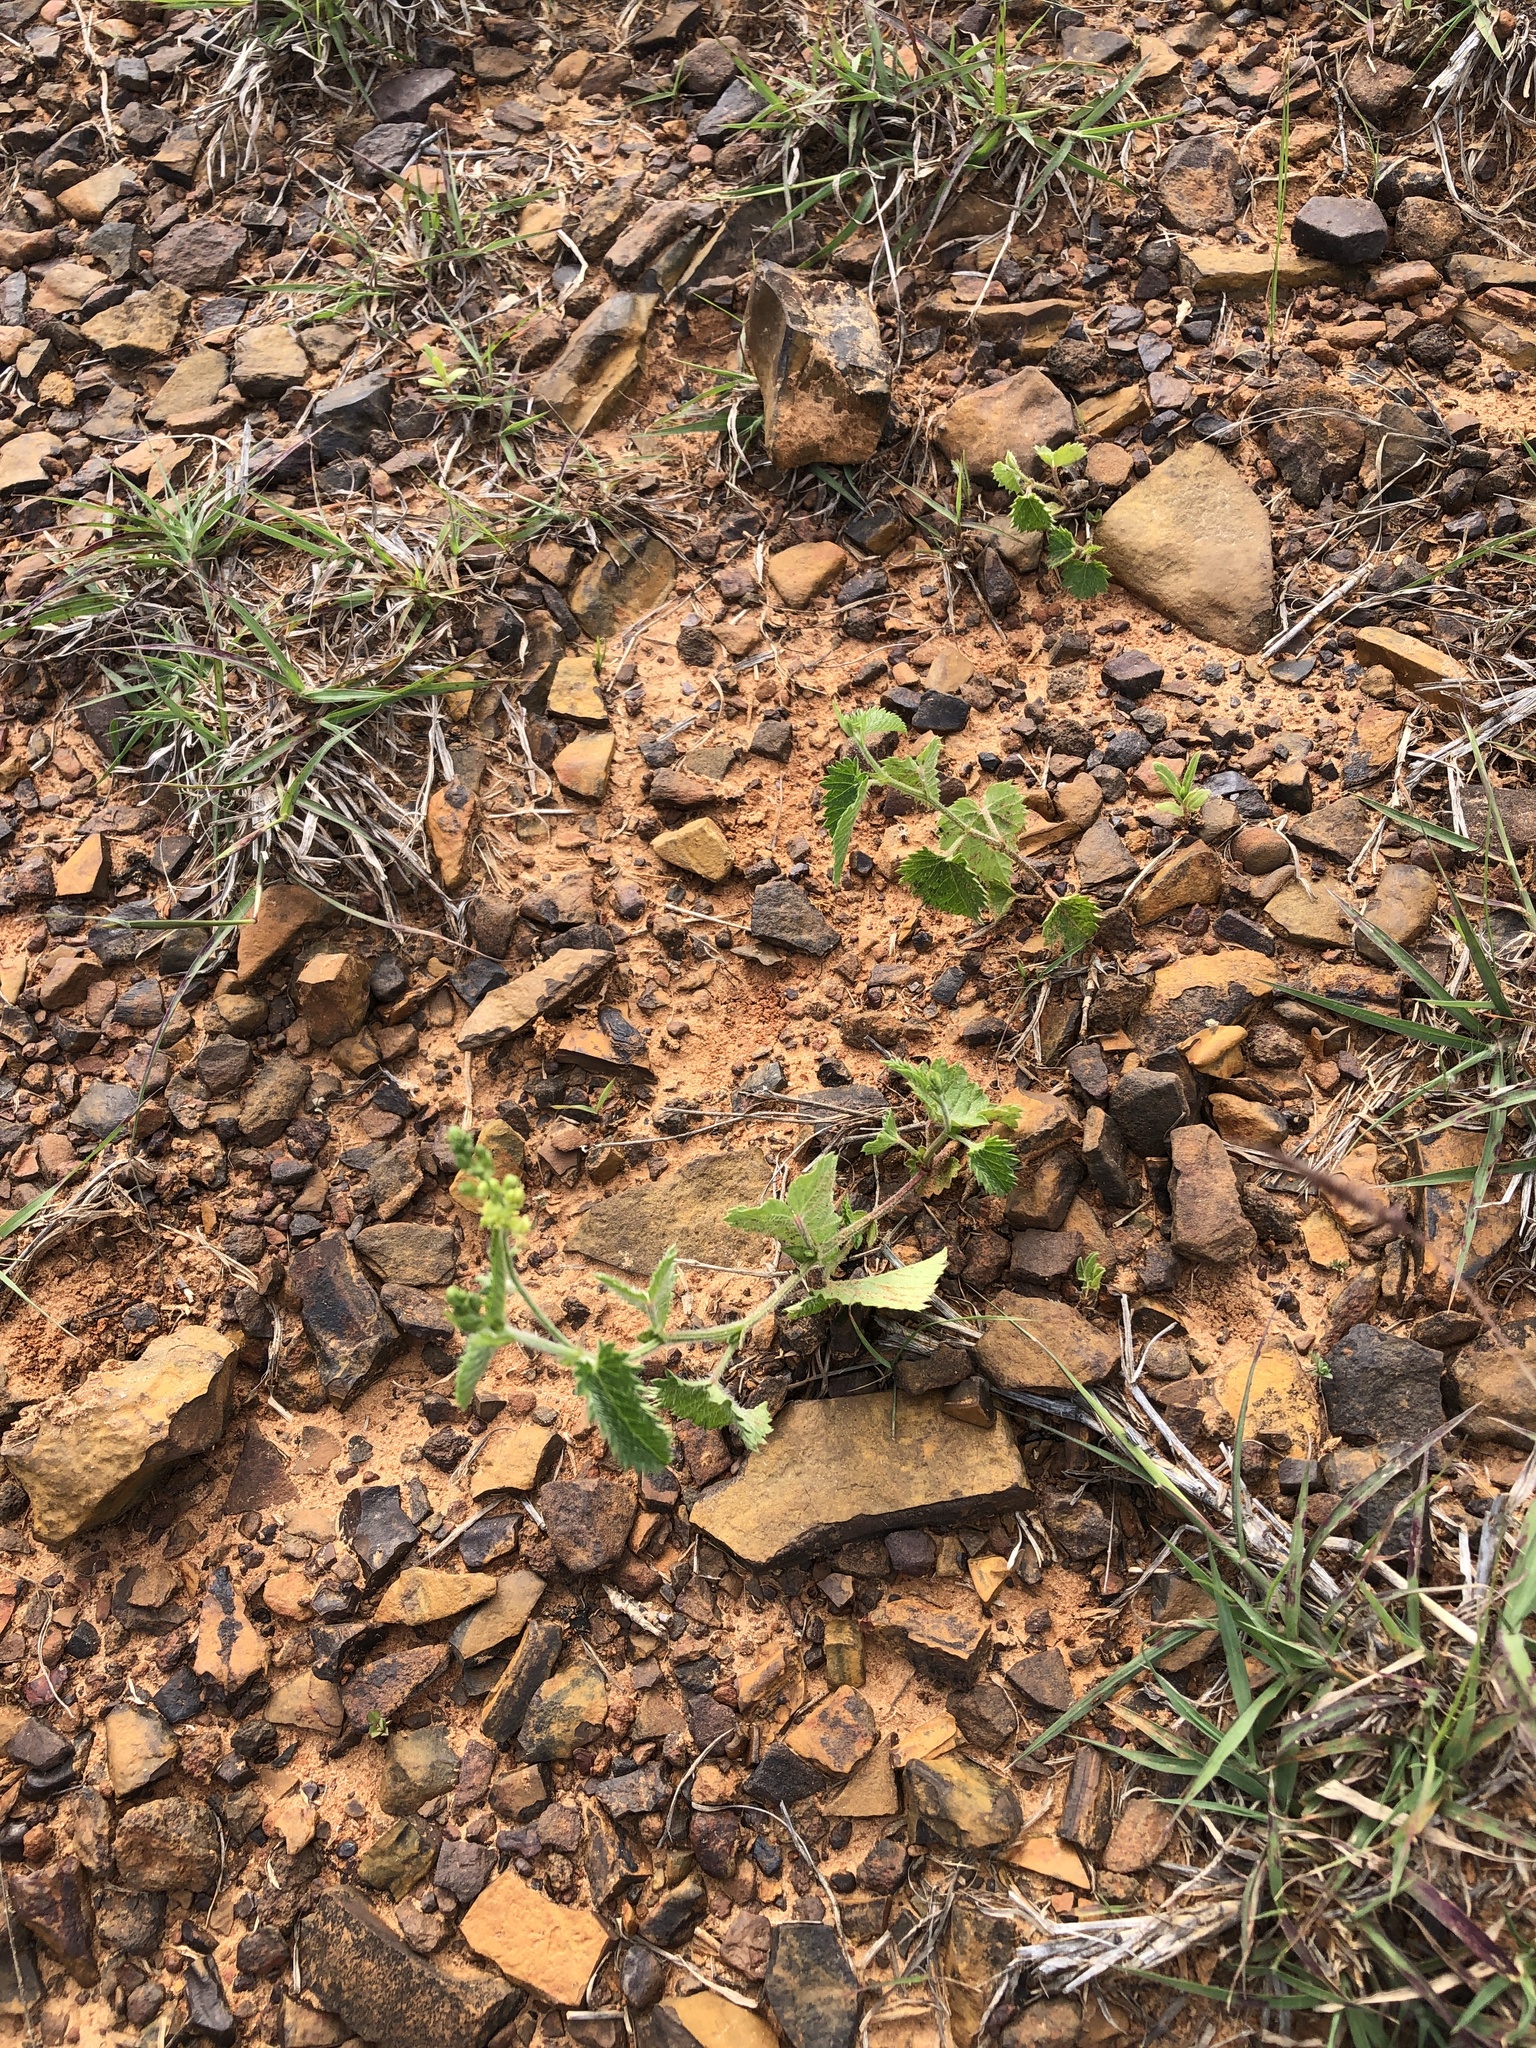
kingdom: Plantae
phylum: Tracheophyta
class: Magnoliopsida
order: Malpighiales
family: Euphorbiaceae
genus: Tragia
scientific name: Tragia ramosa
